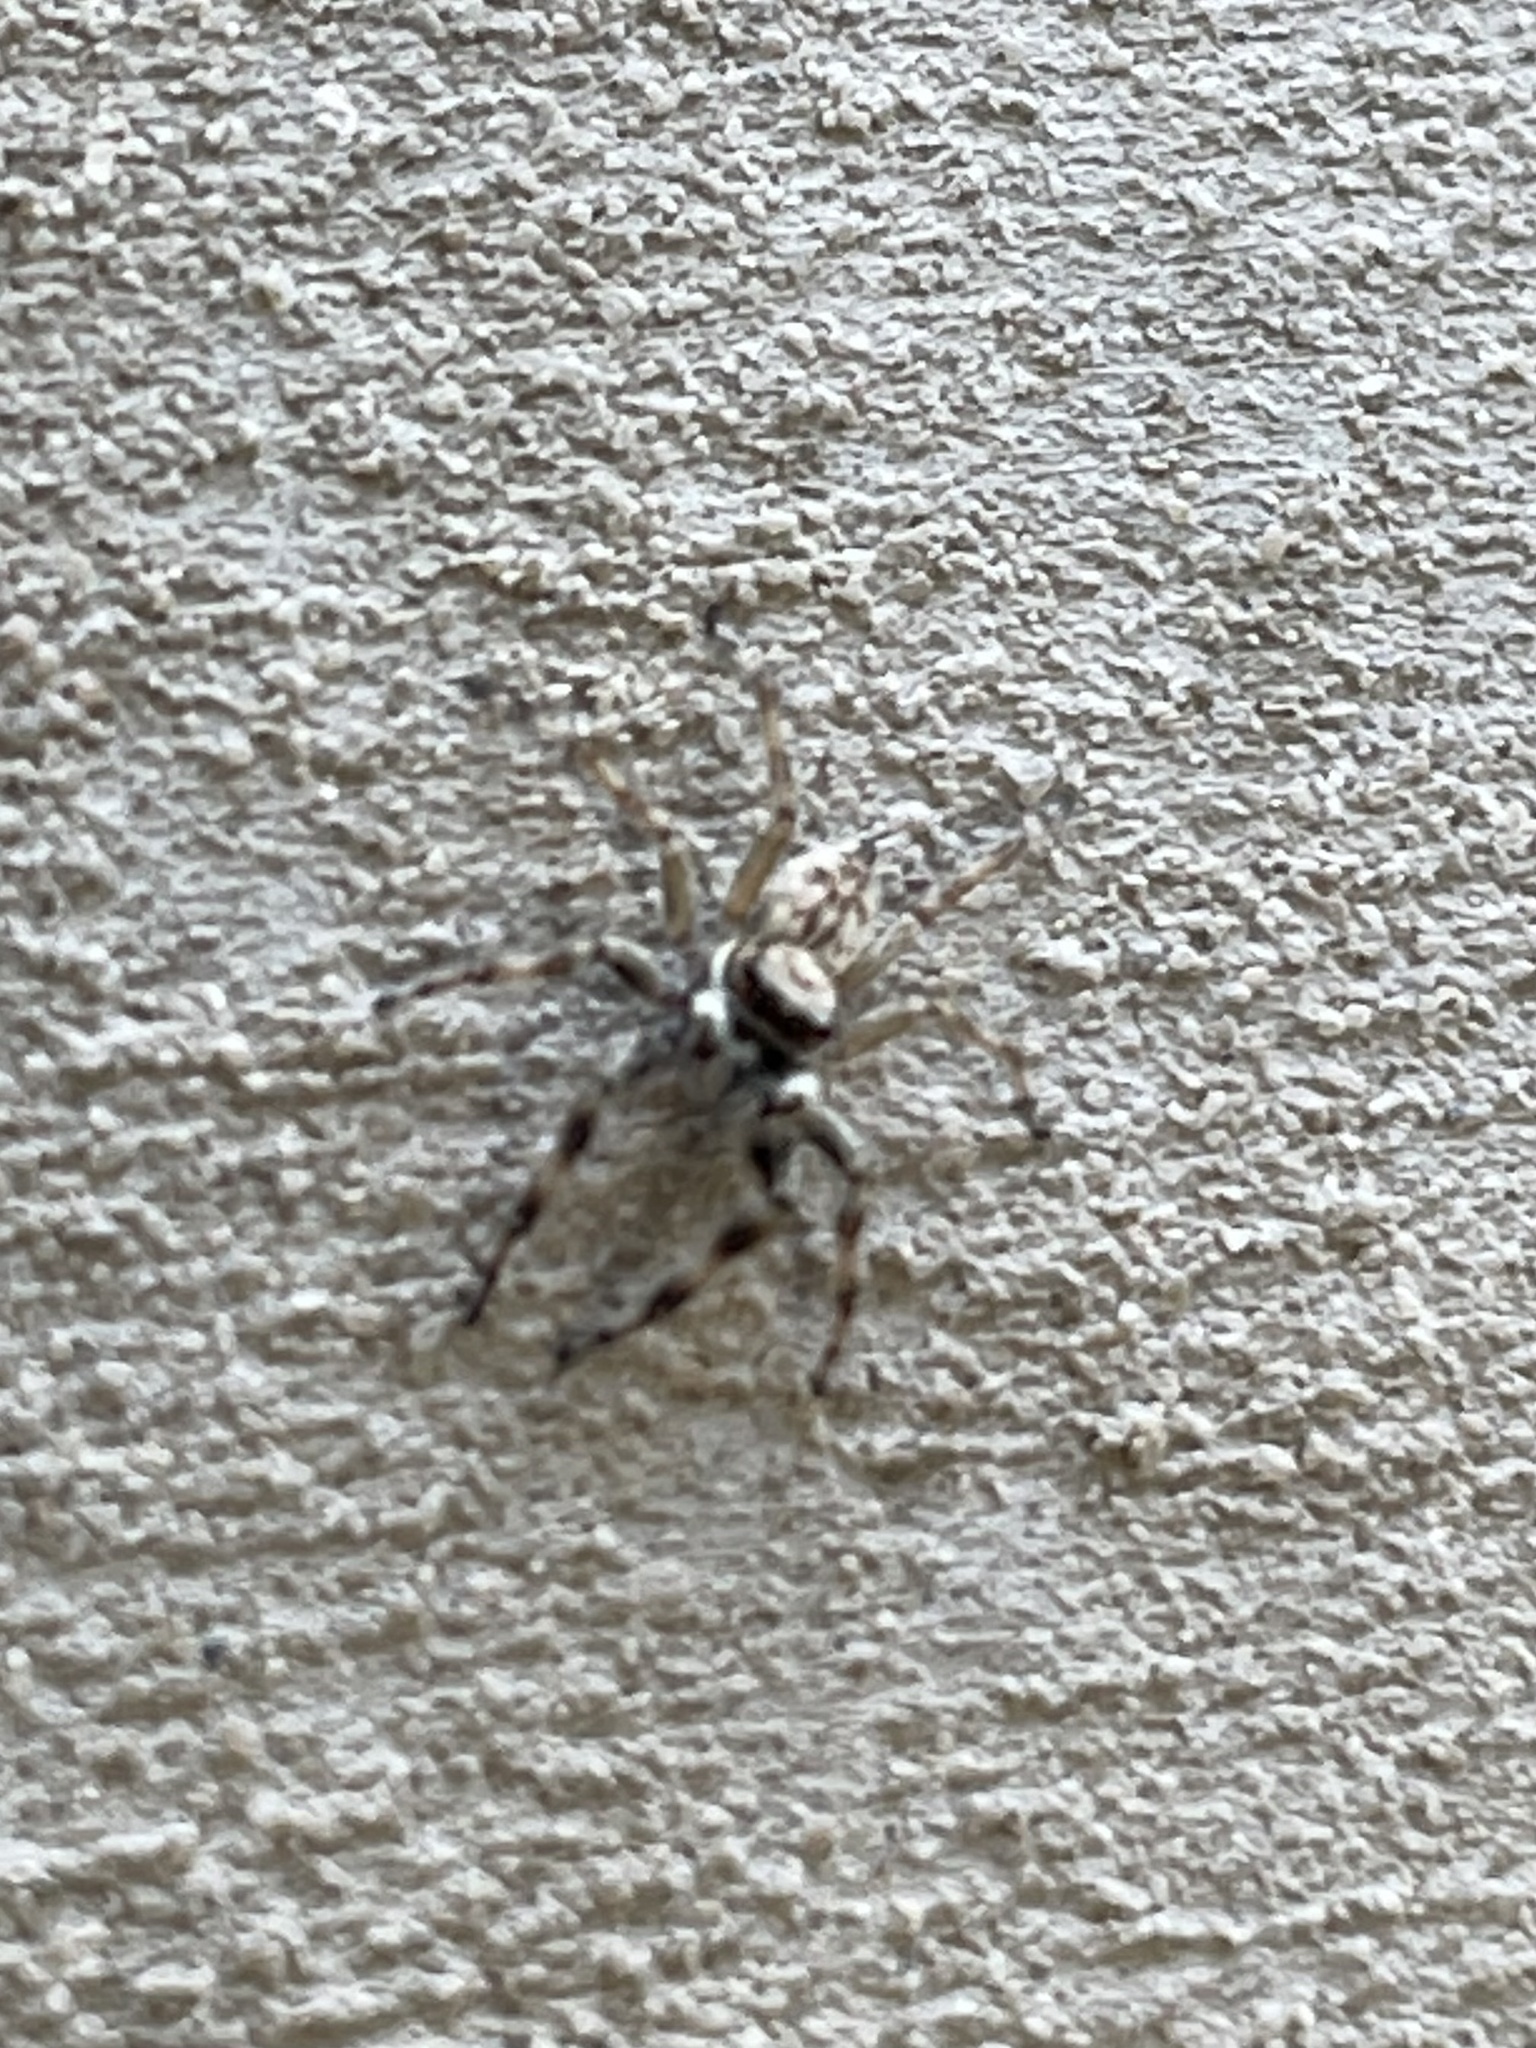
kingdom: Animalia
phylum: Arthropoda
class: Arachnida
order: Araneae
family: Salticidae
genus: Menemerus
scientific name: Menemerus bivittatus
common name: Gray wall jumper
